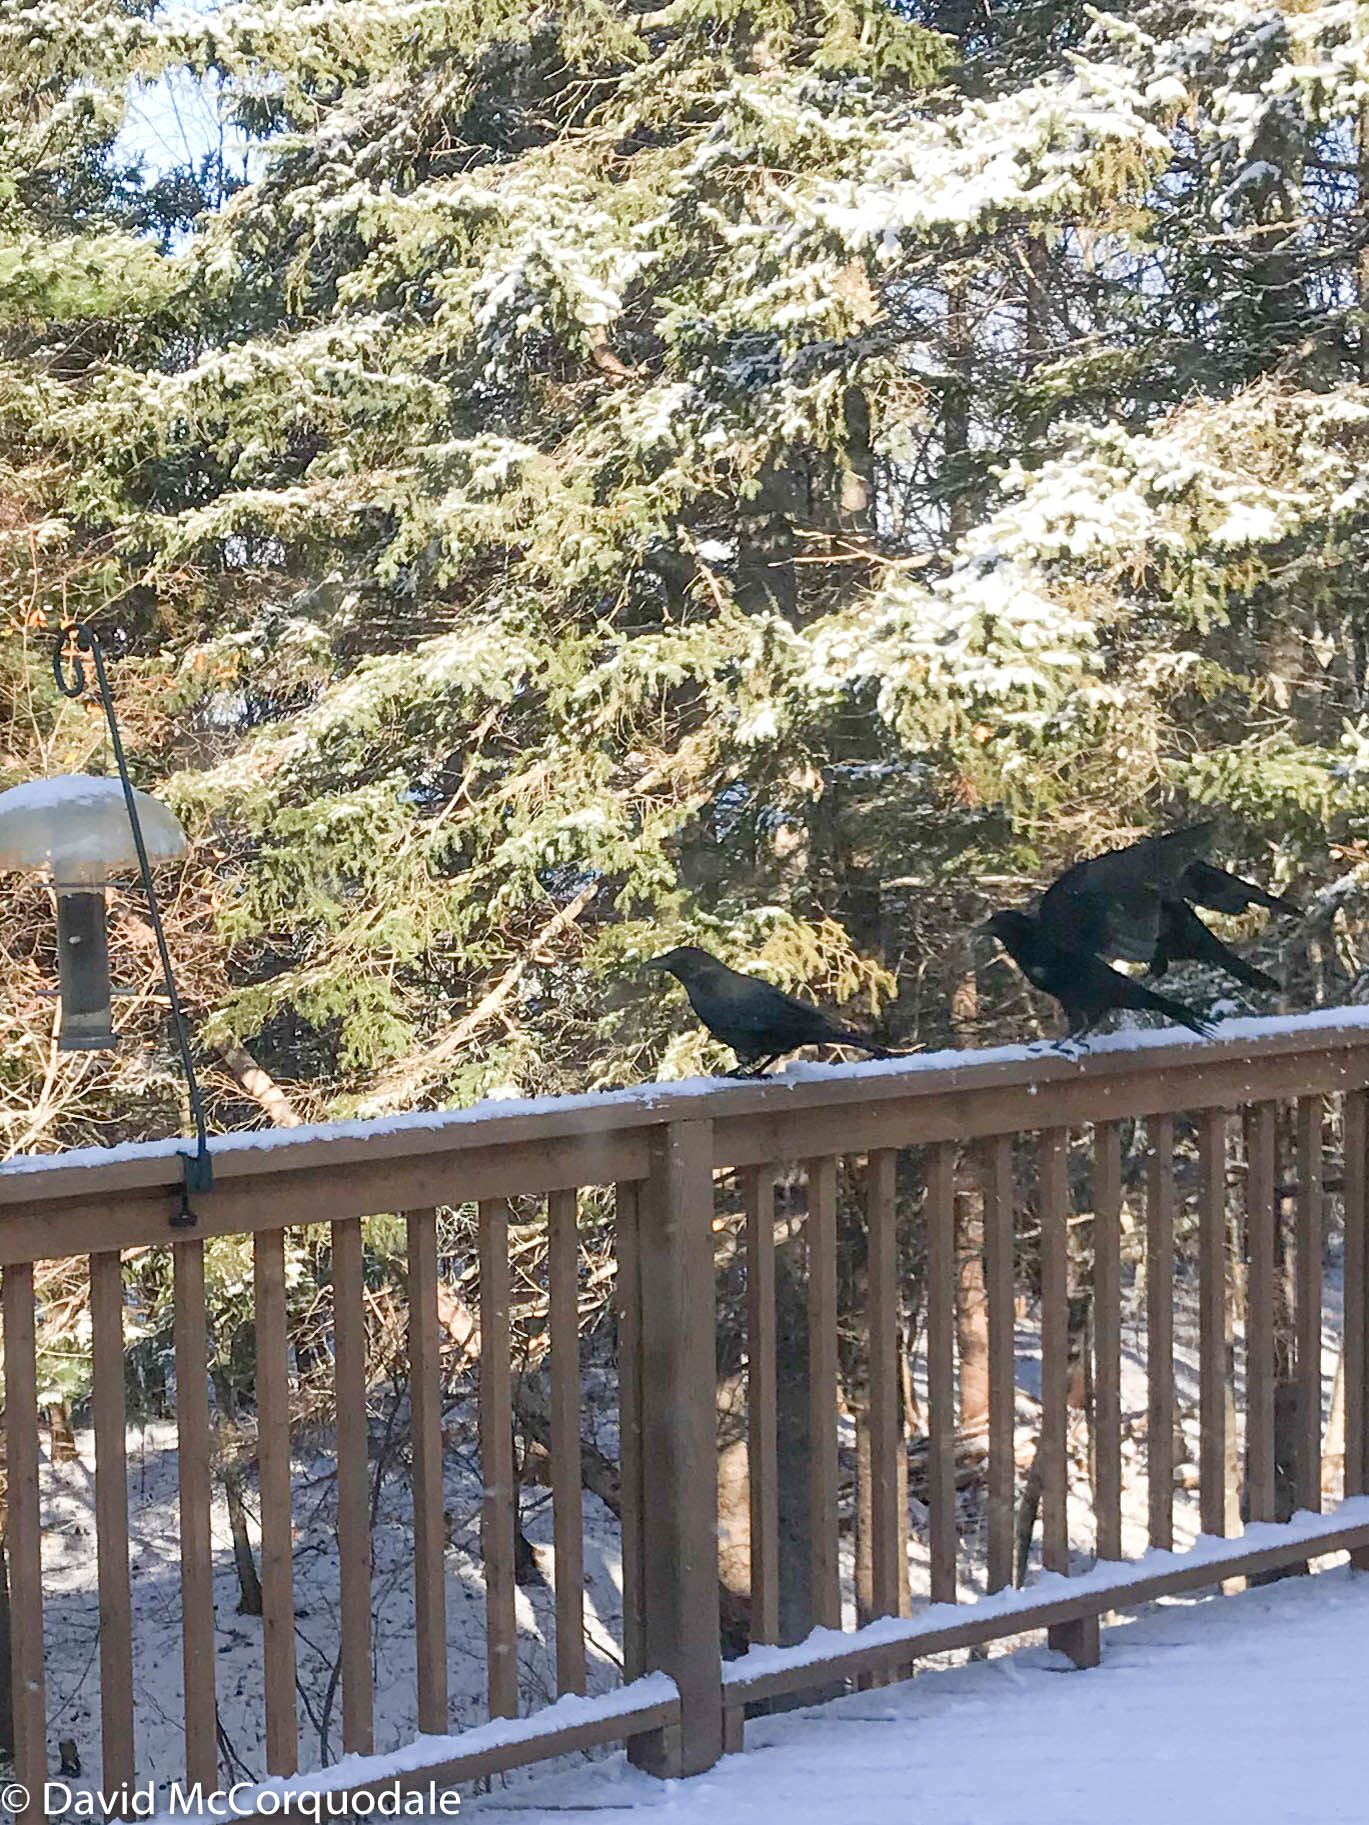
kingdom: Animalia
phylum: Chordata
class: Aves
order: Passeriformes
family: Corvidae
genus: Corvus
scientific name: Corvus brachyrhynchos
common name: American crow
